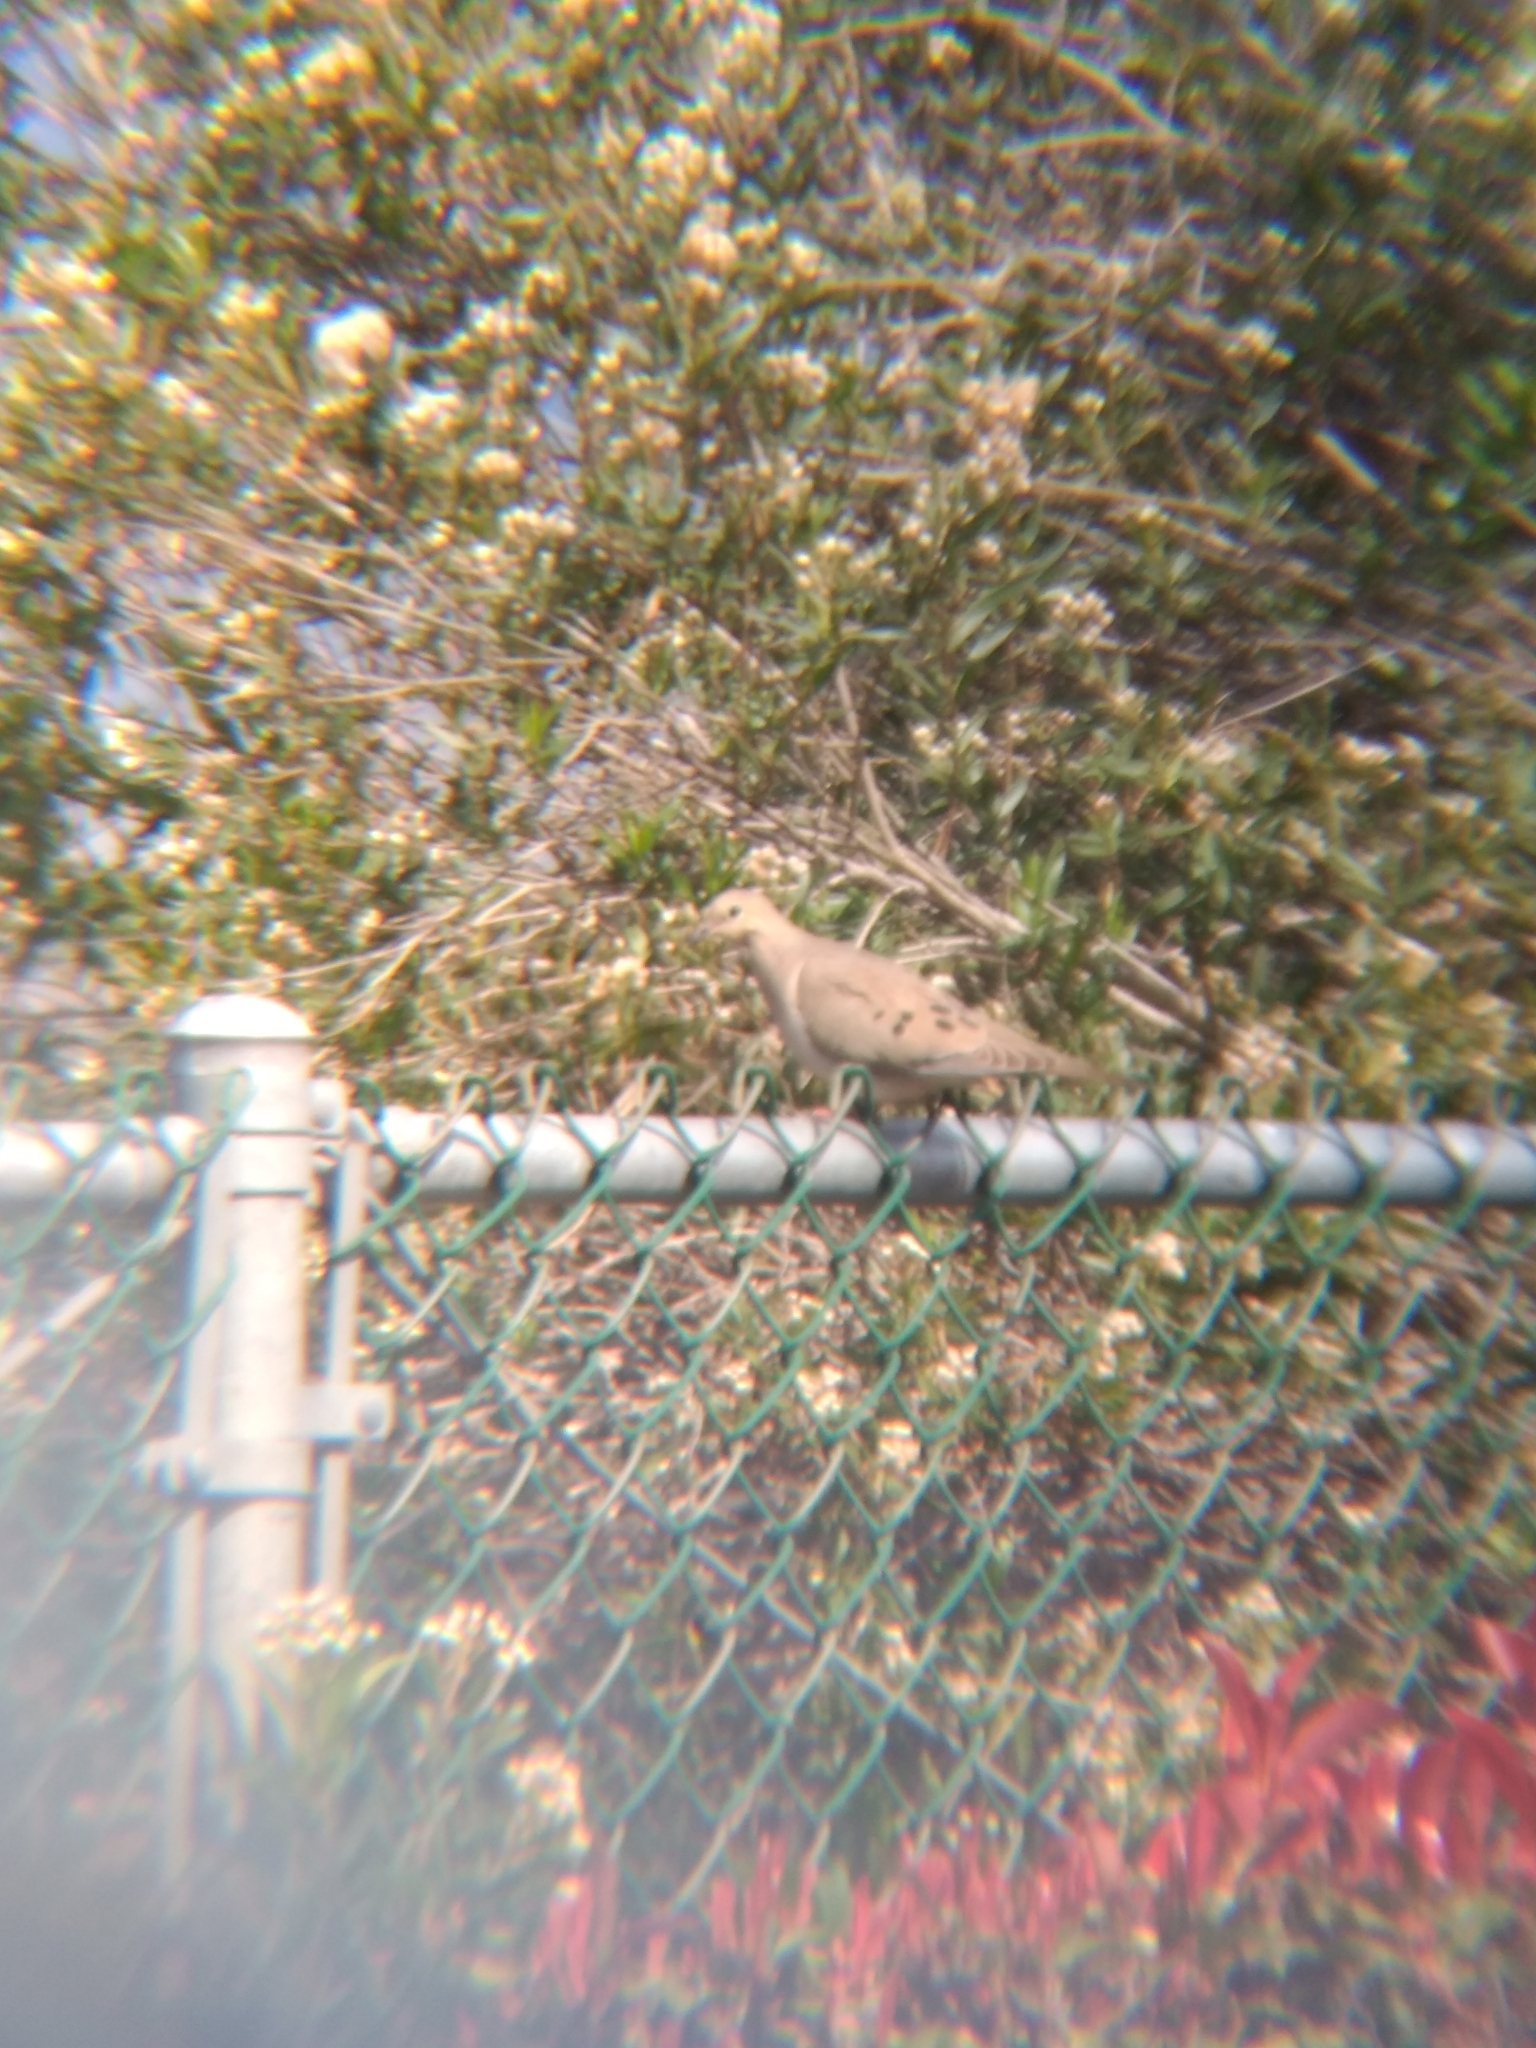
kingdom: Animalia
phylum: Chordata
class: Aves
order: Columbiformes
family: Columbidae
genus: Zenaida
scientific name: Zenaida macroura
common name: Mourning dove
